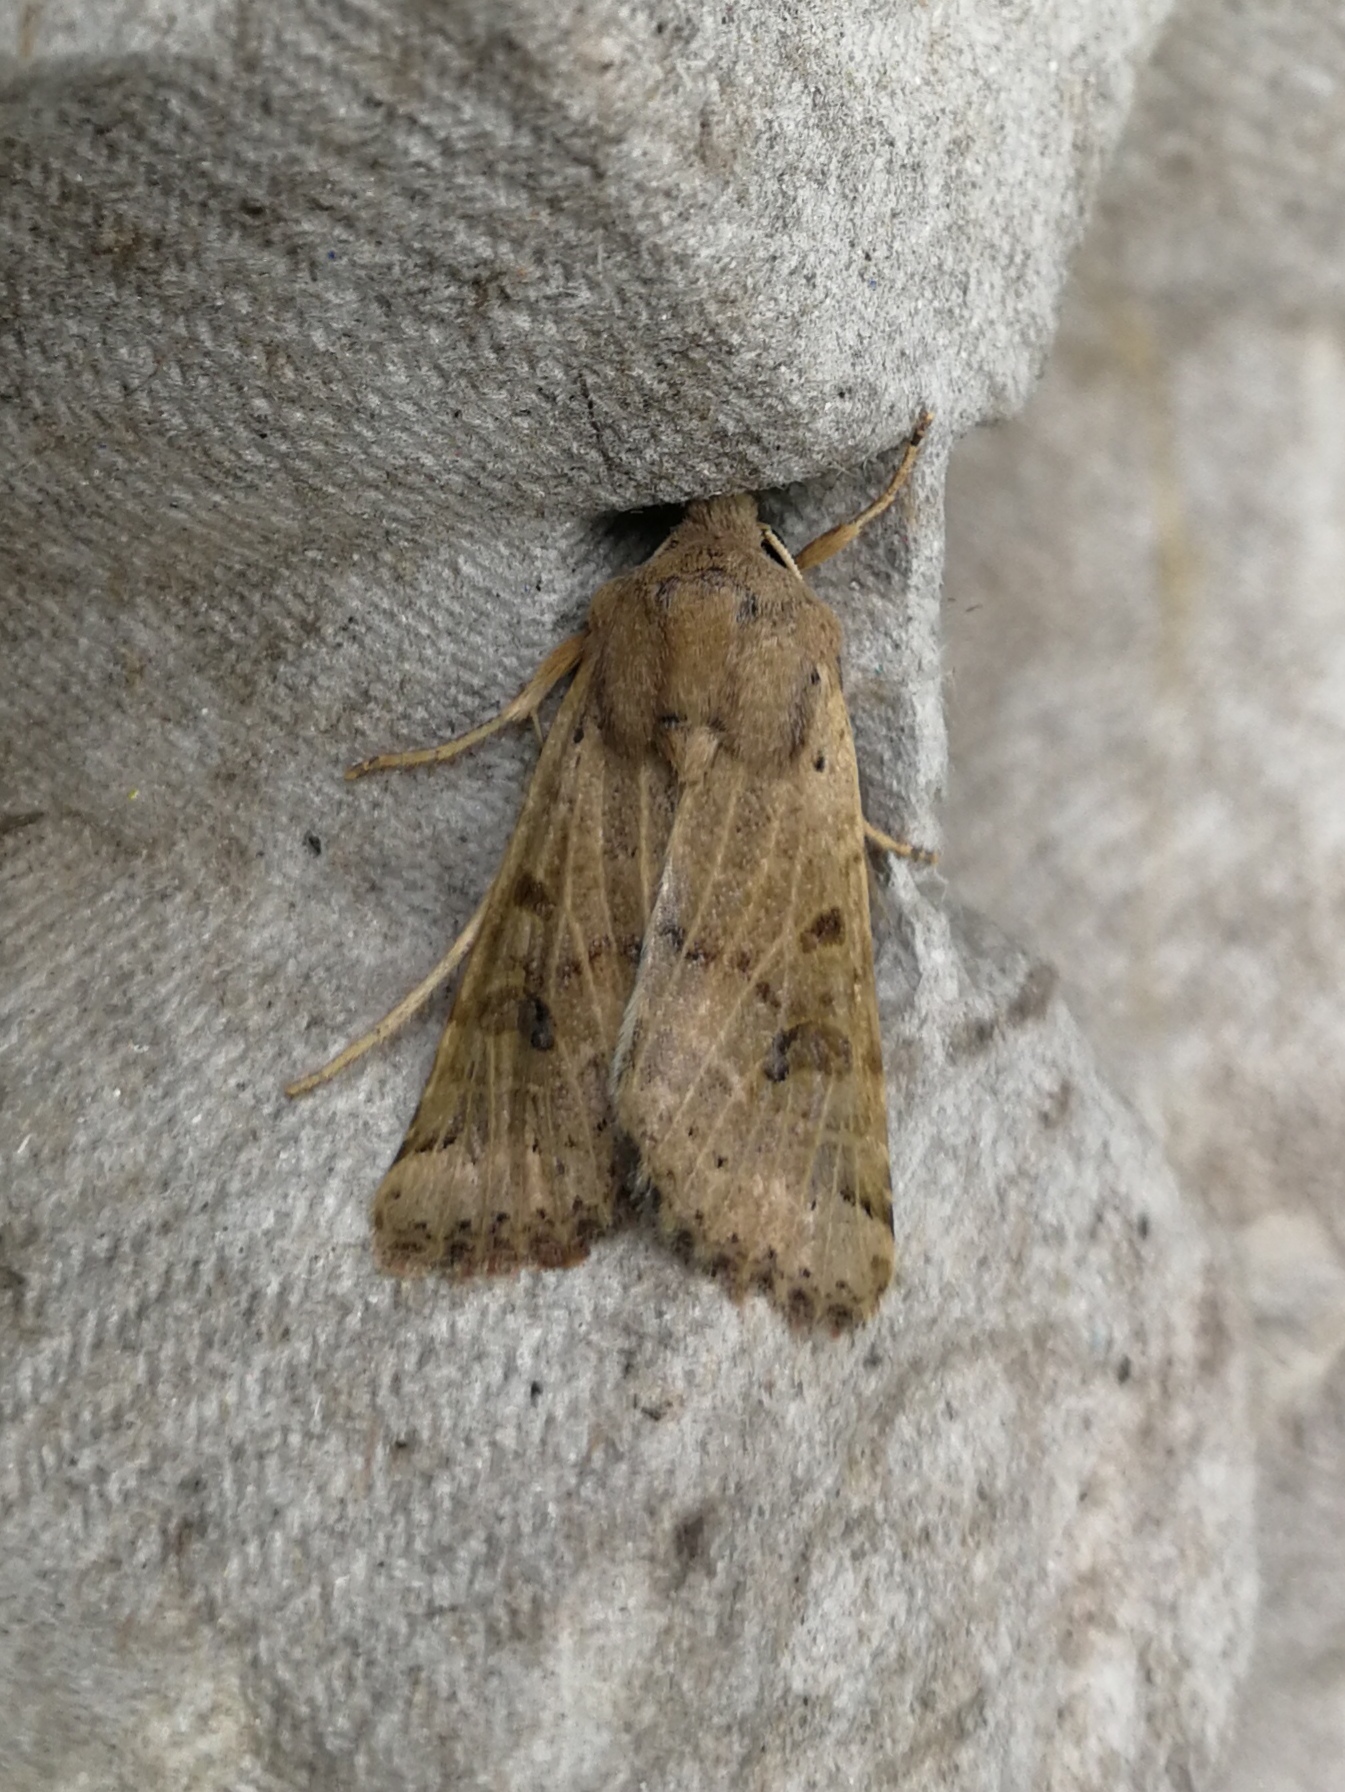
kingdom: Animalia
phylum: Arthropoda
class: Insecta
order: Lepidoptera
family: Noctuidae
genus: Agrochola
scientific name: Agrochola lunosa
